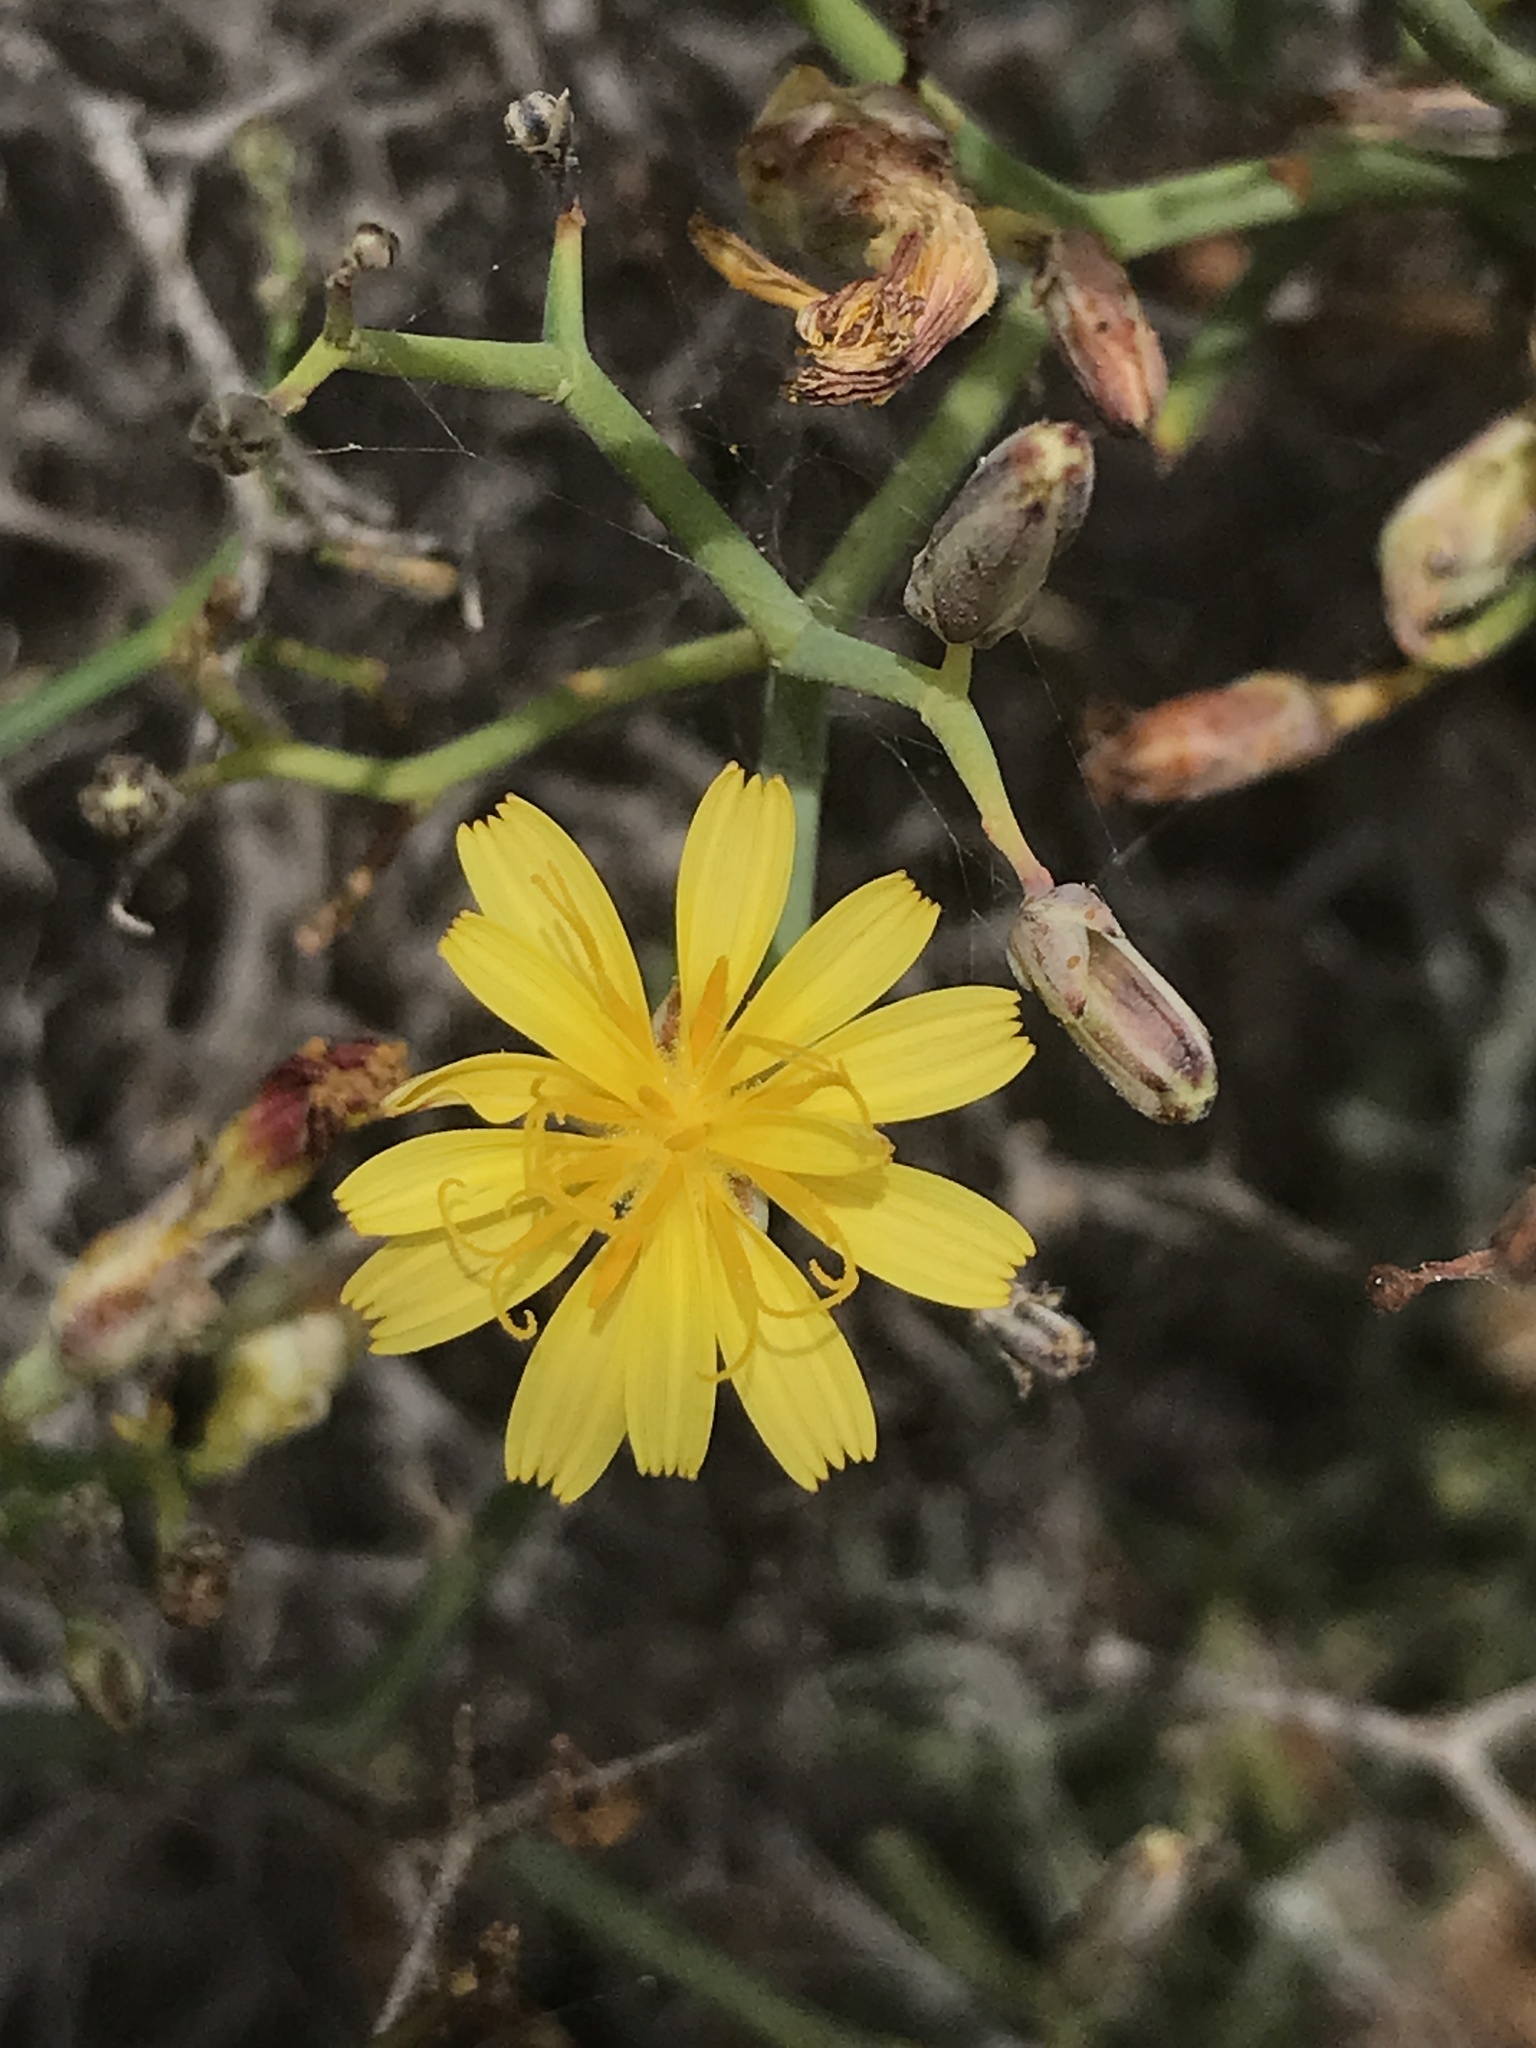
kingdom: Plantae
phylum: Tracheophyta
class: Magnoliopsida
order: Asterales
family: Asteraceae
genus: Launaea
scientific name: Launaea arborescens
